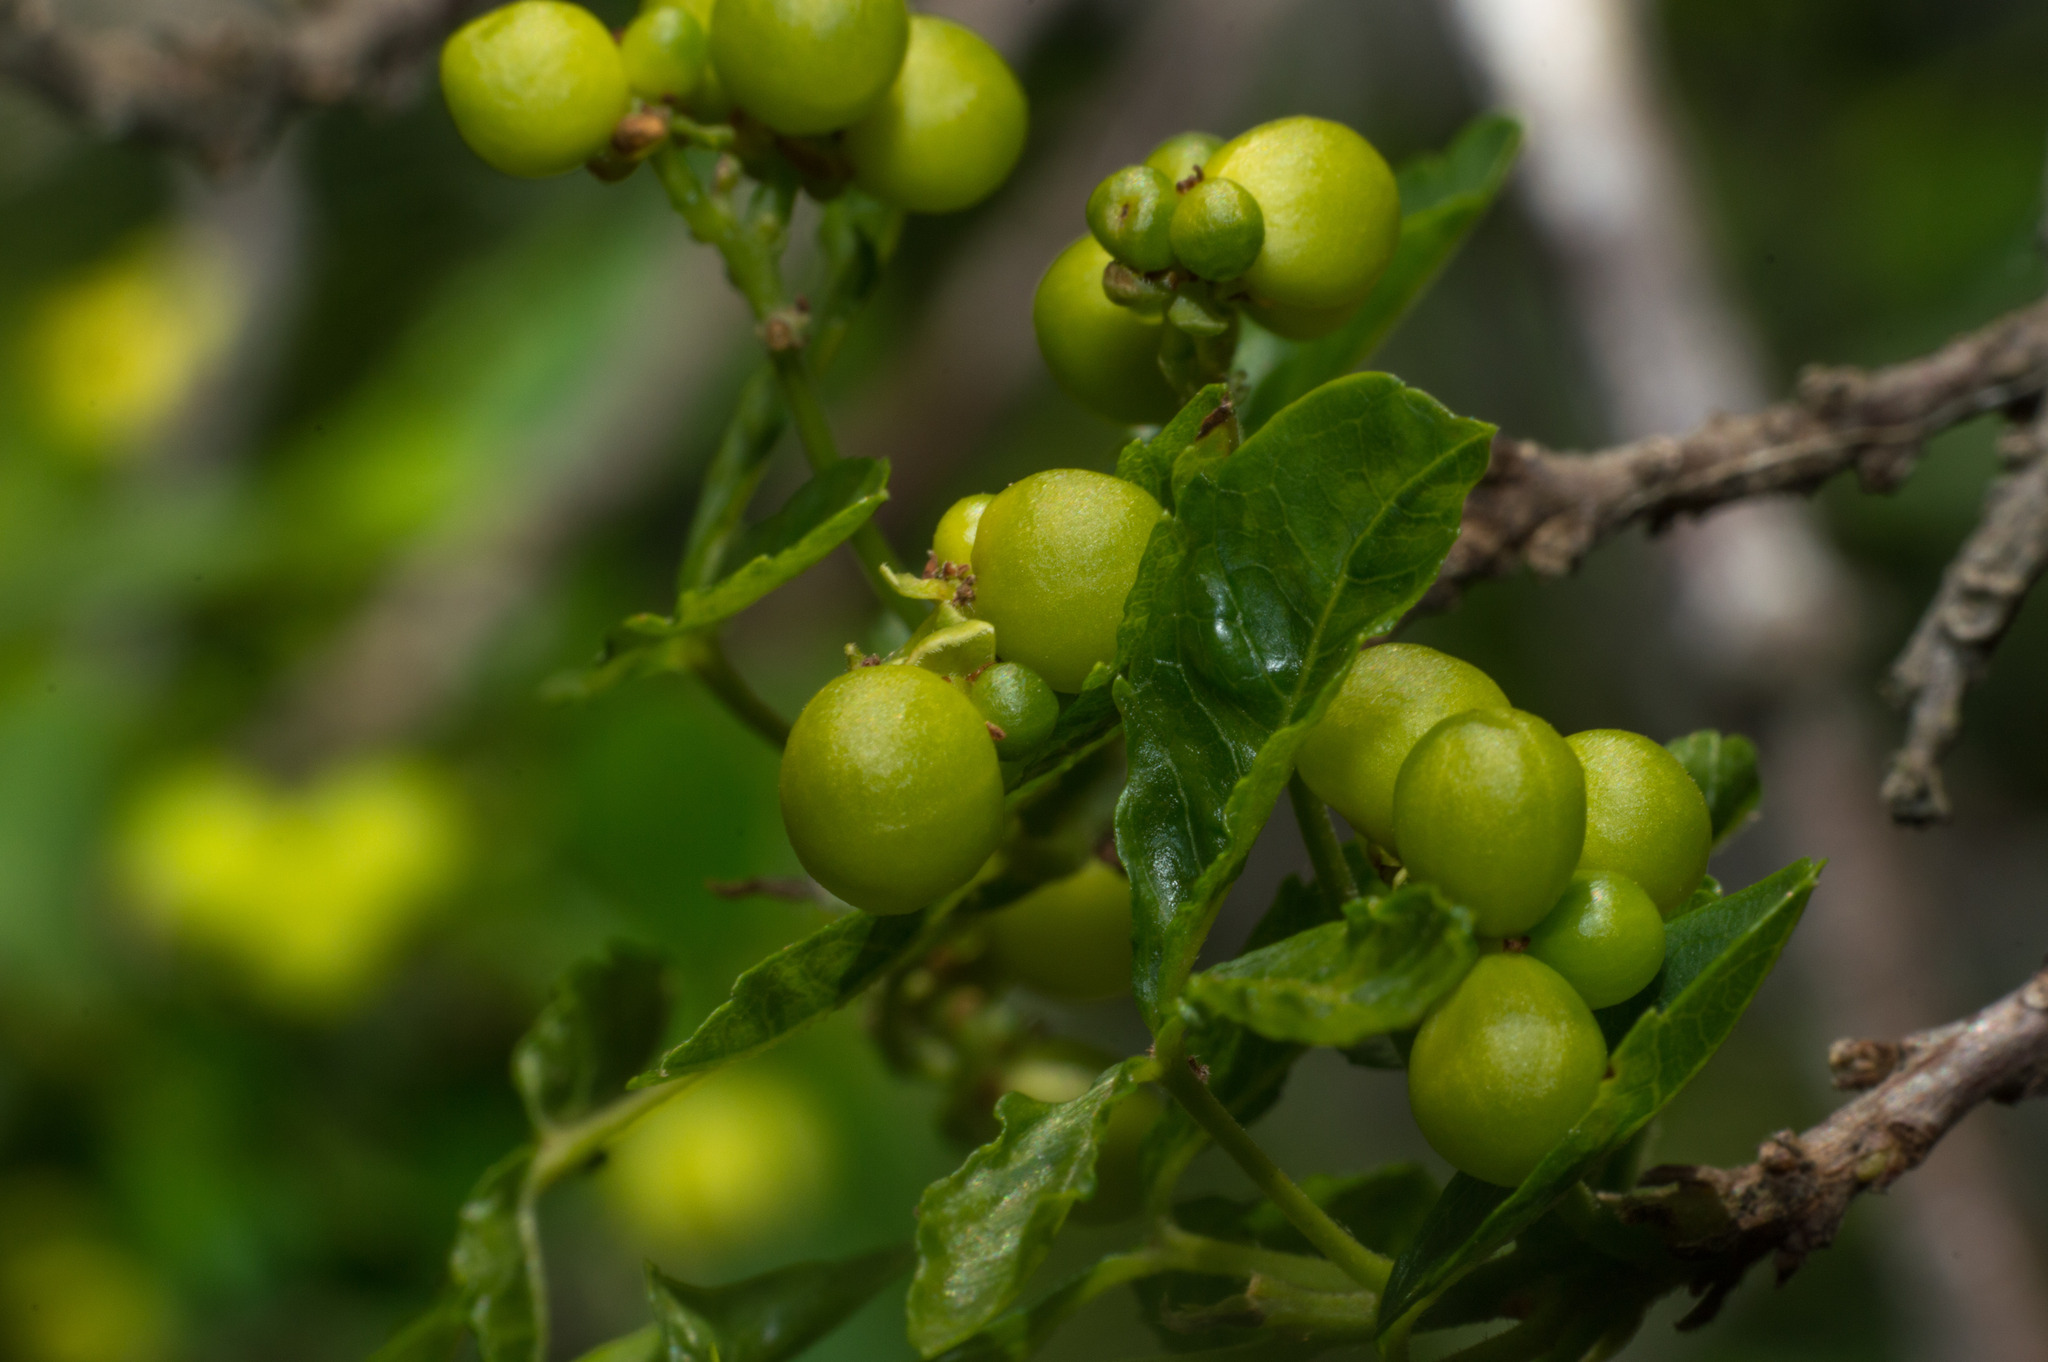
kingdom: Plantae
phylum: Tracheophyta
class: Magnoliopsida
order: Sapindales
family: Sapindaceae
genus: Allophylus
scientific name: Allophylus edulis
